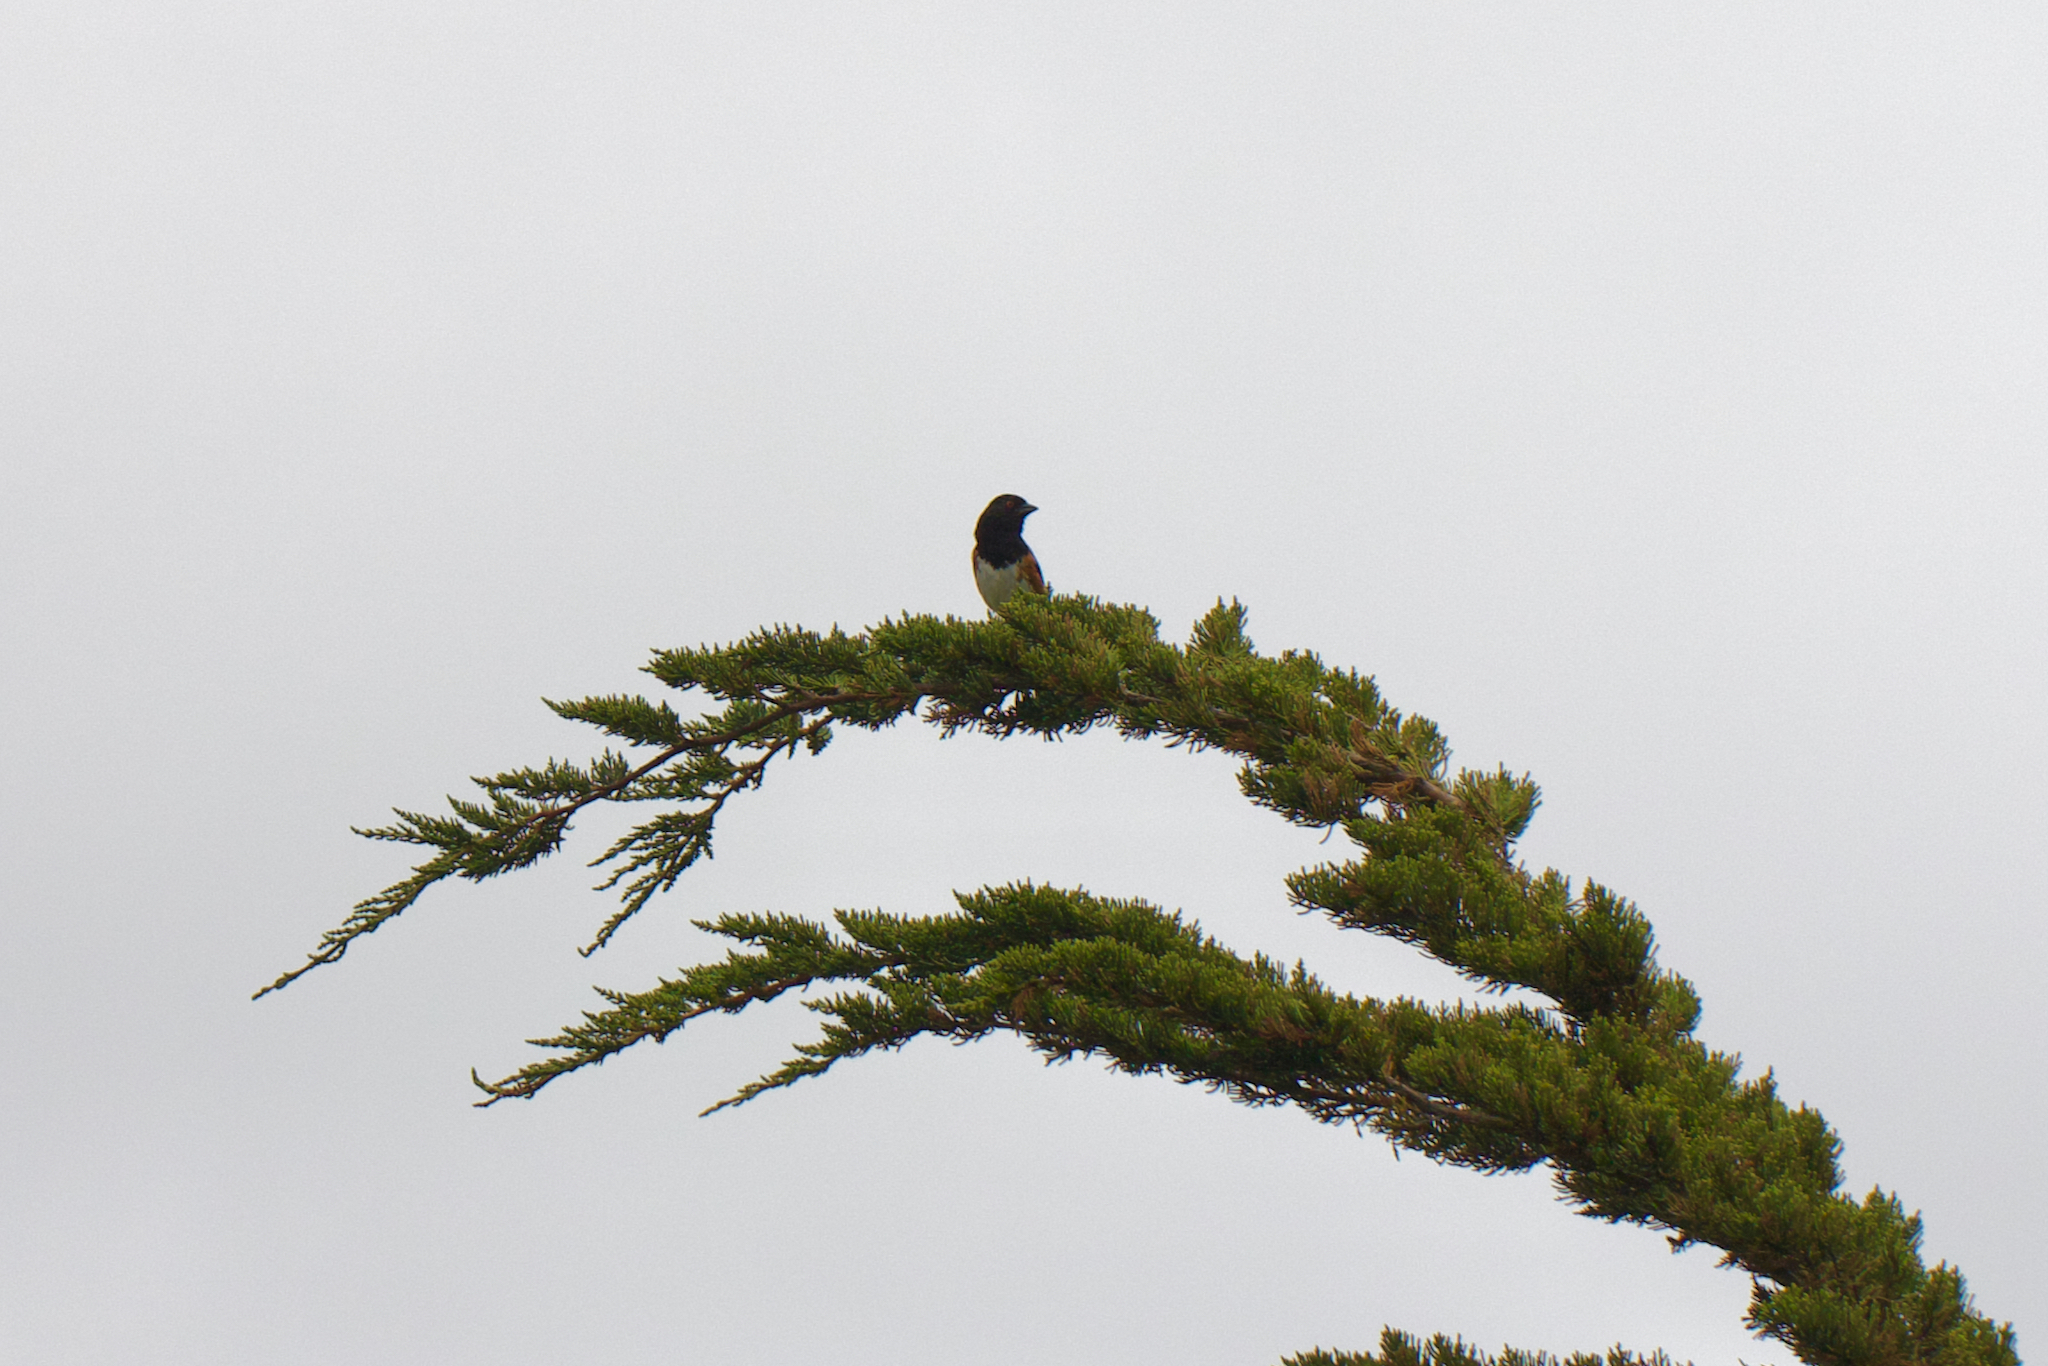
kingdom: Animalia
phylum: Chordata
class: Aves
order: Passeriformes
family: Passerellidae
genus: Pipilo
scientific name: Pipilo maculatus
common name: Spotted towhee
